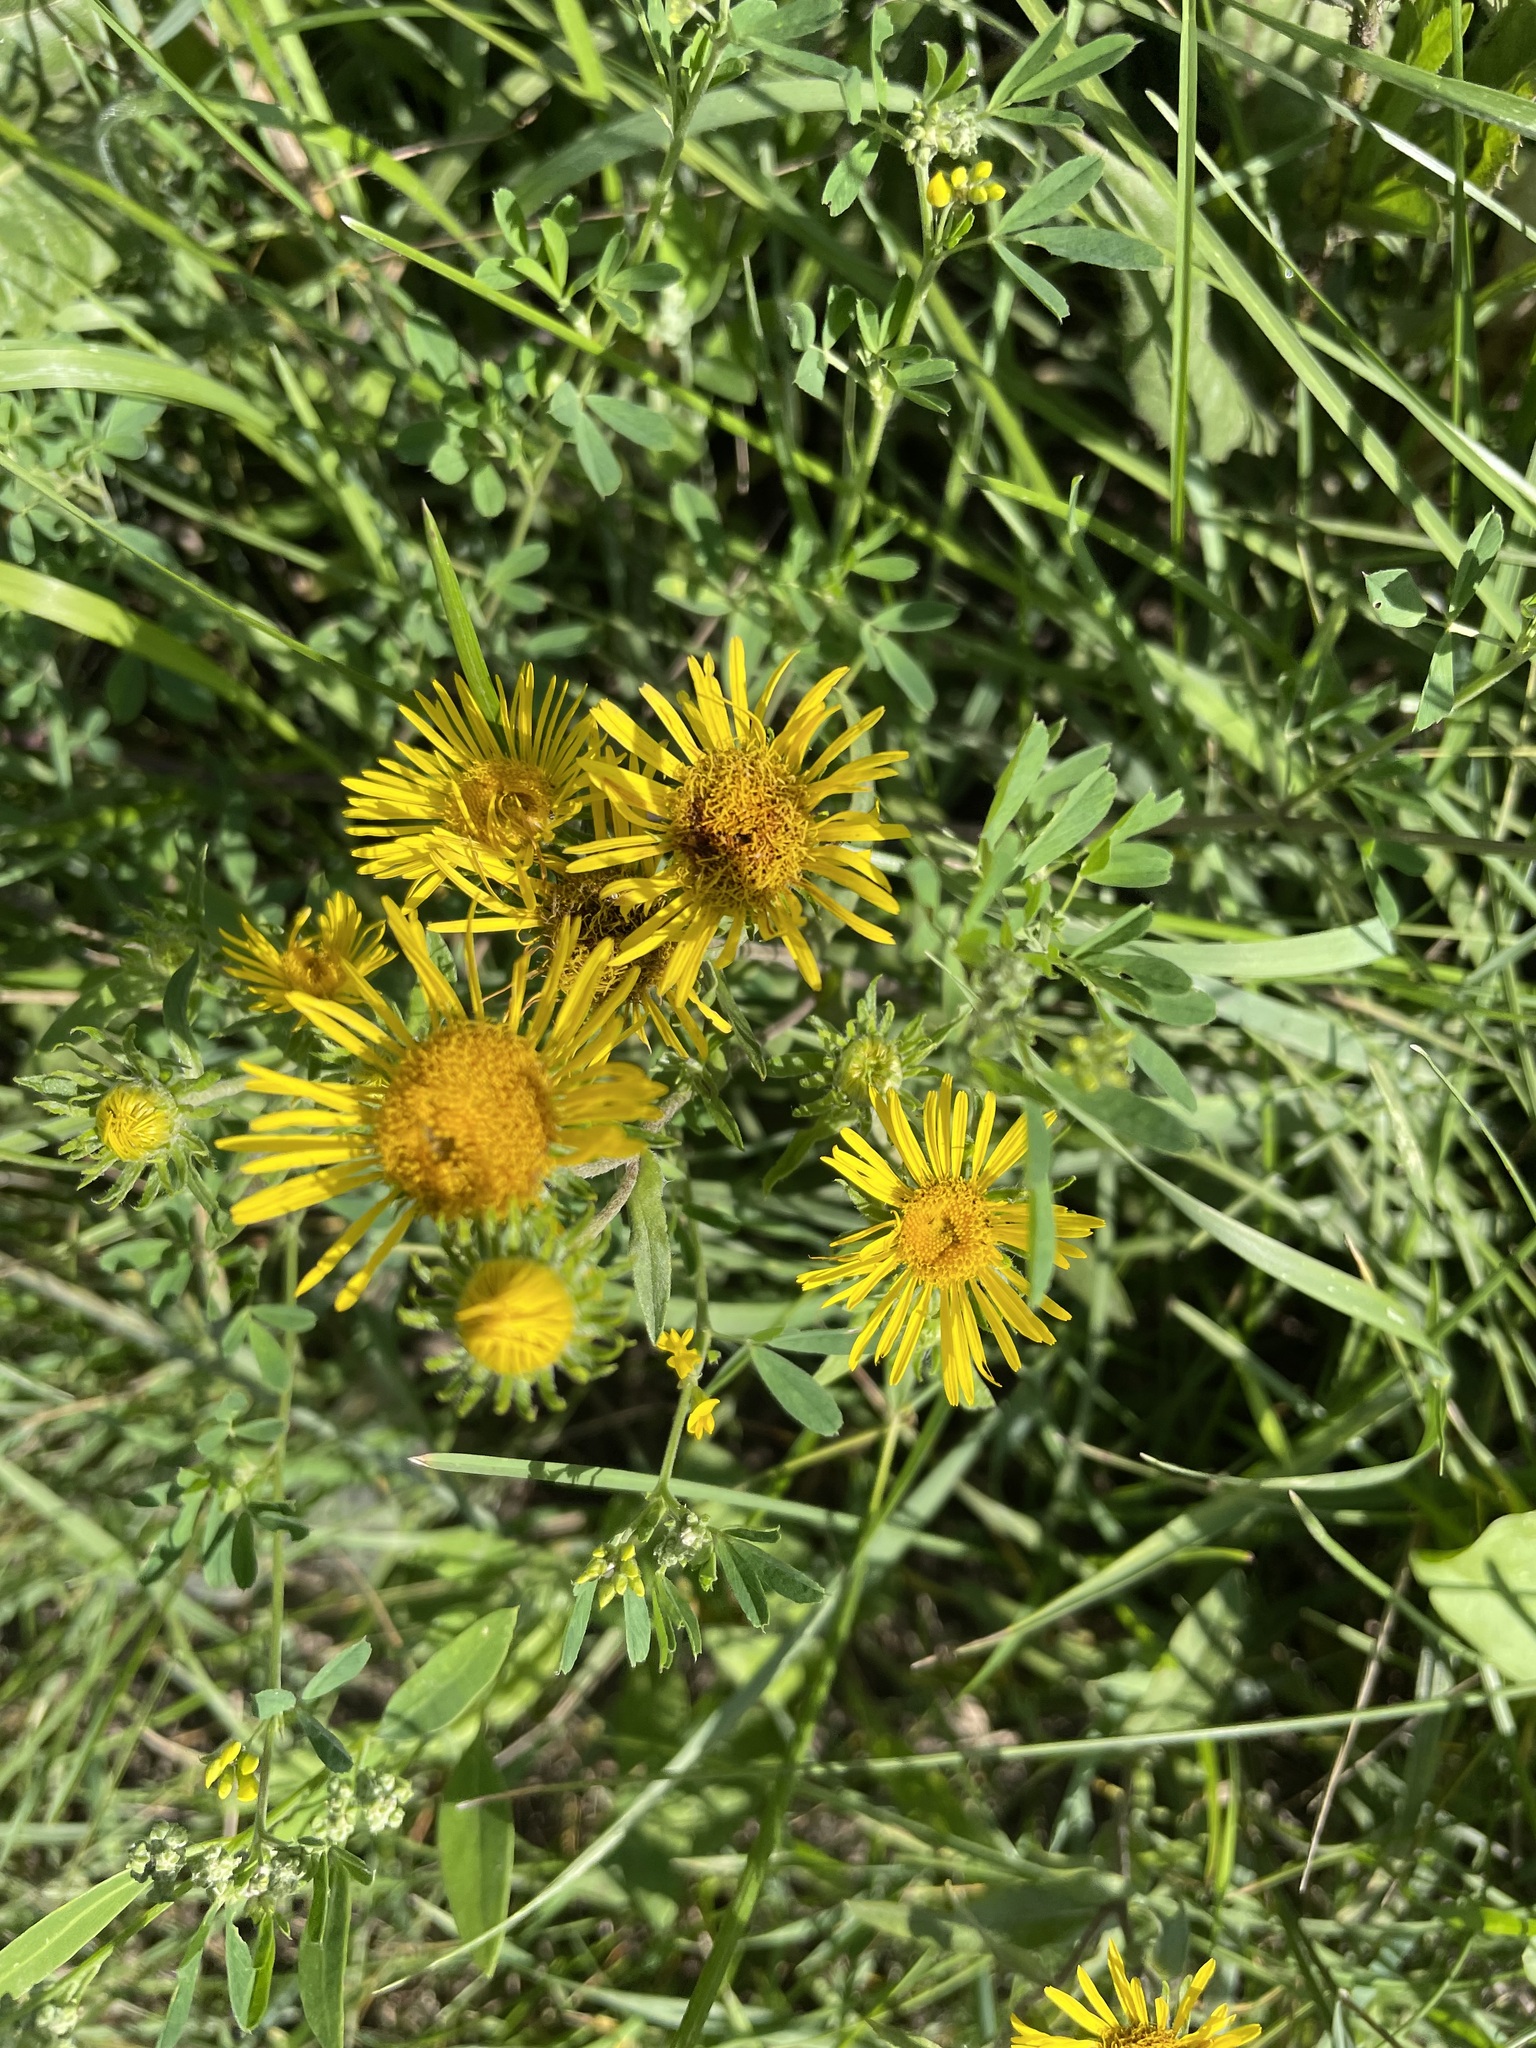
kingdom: Plantae
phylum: Tracheophyta
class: Magnoliopsida
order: Asterales
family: Asteraceae
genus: Pentanema
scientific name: Pentanema britannicum
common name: British elecampane
